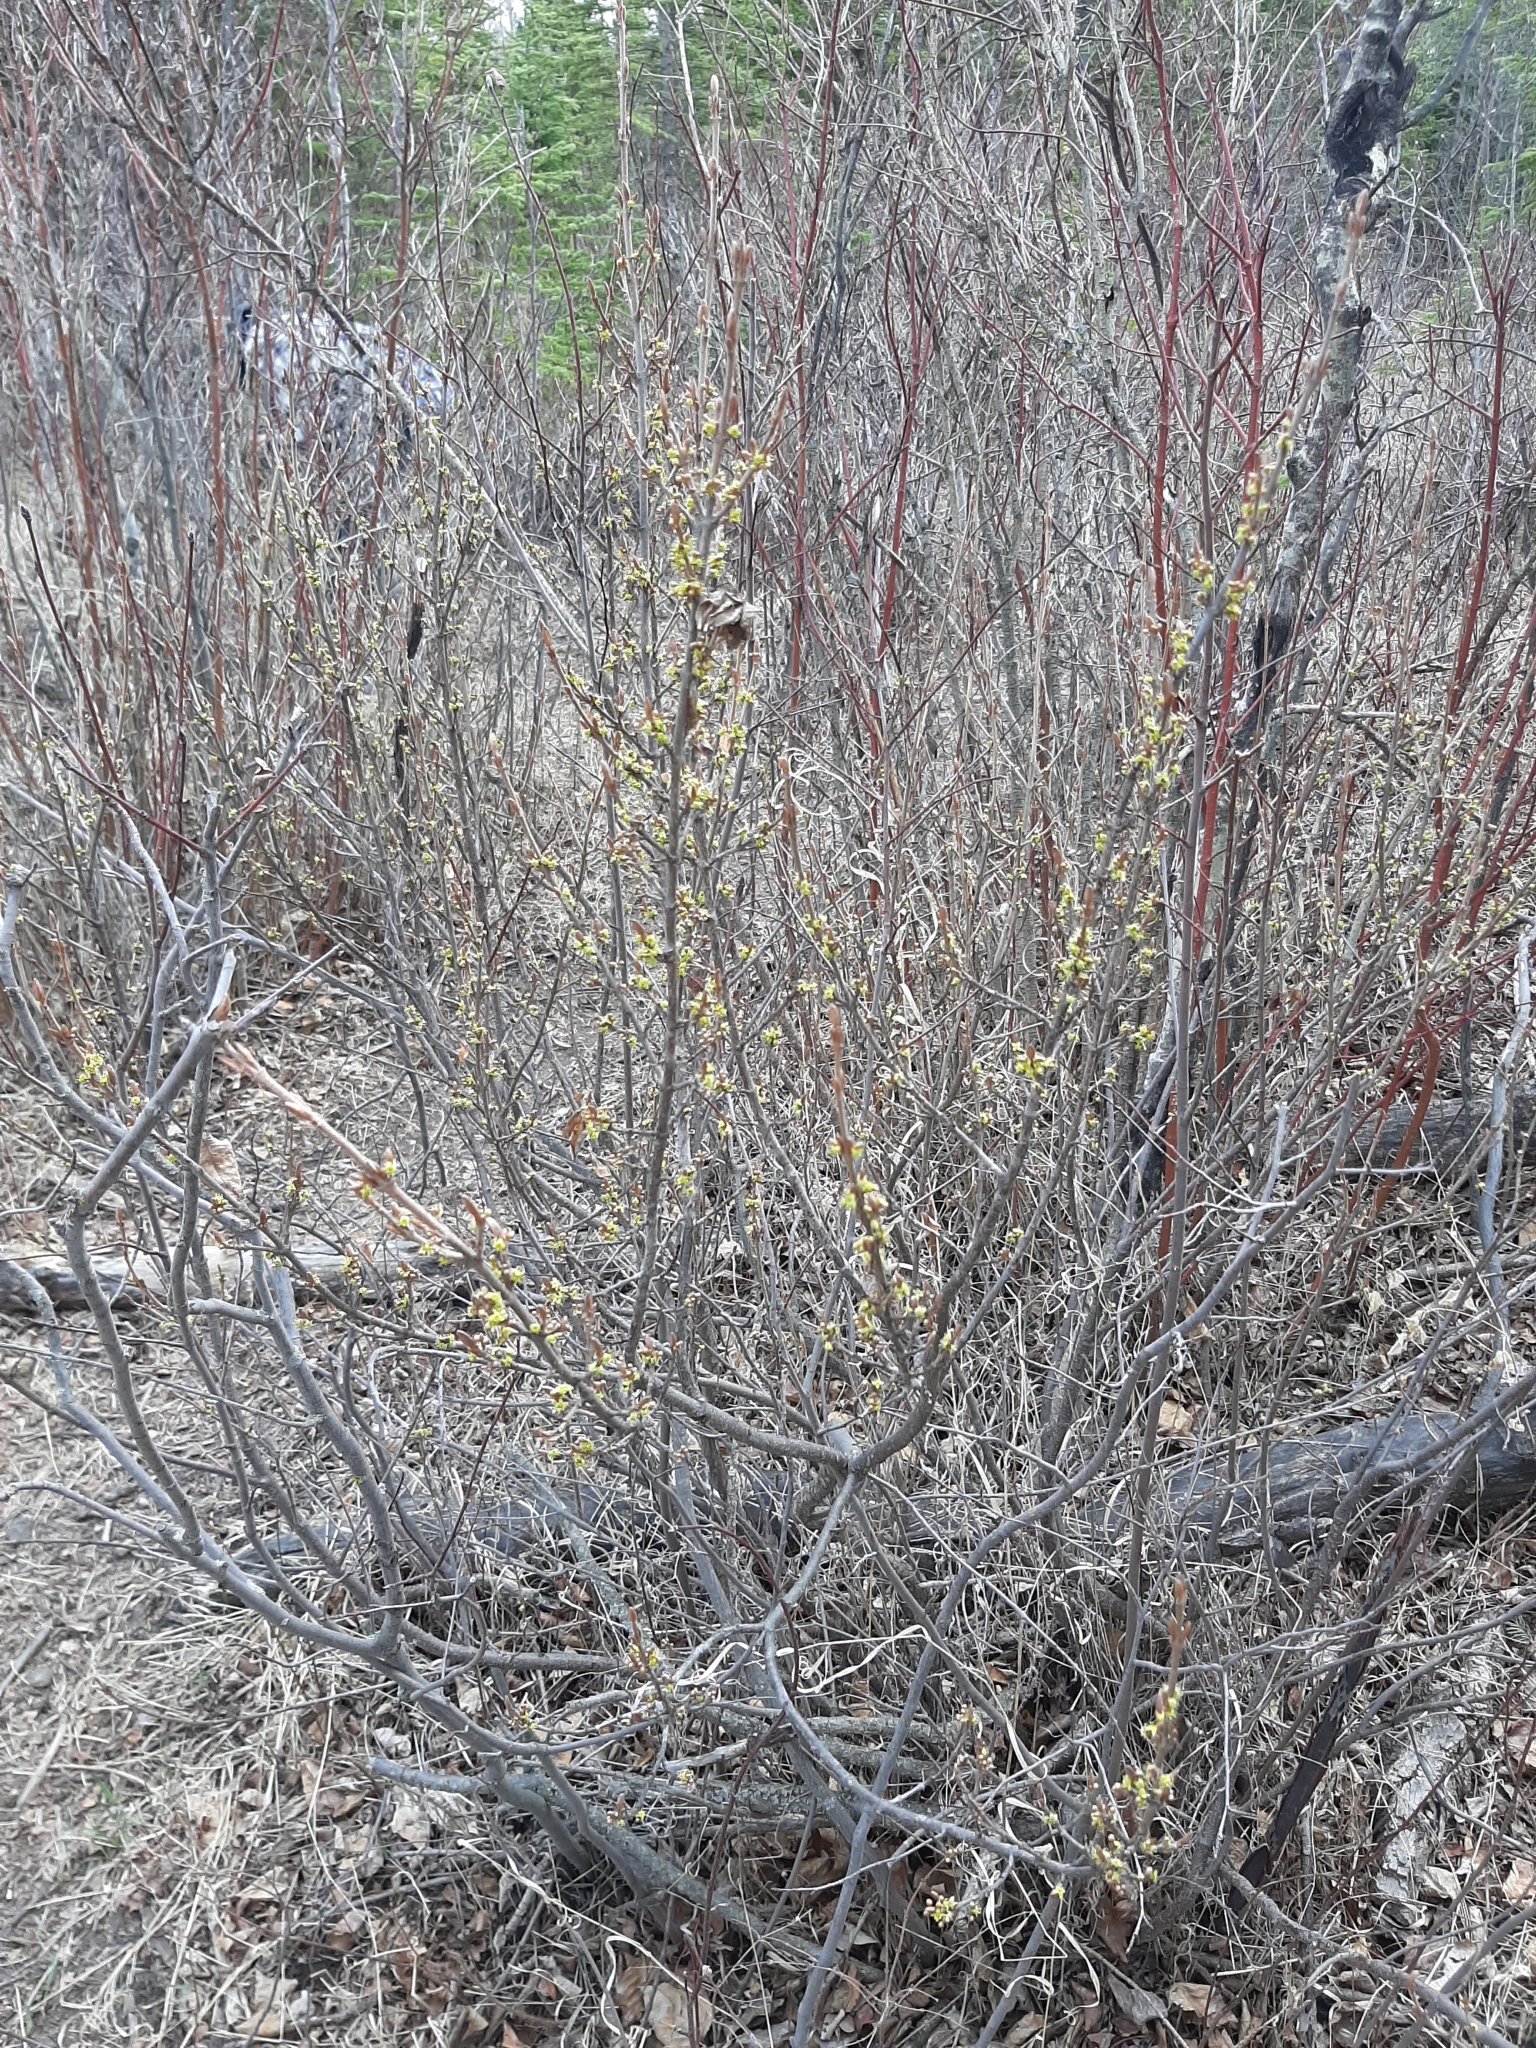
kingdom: Plantae
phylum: Tracheophyta
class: Magnoliopsida
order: Rosales
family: Elaeagnaceae
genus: Shepherdia
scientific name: Shepherdia canadensis
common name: Soapberry
